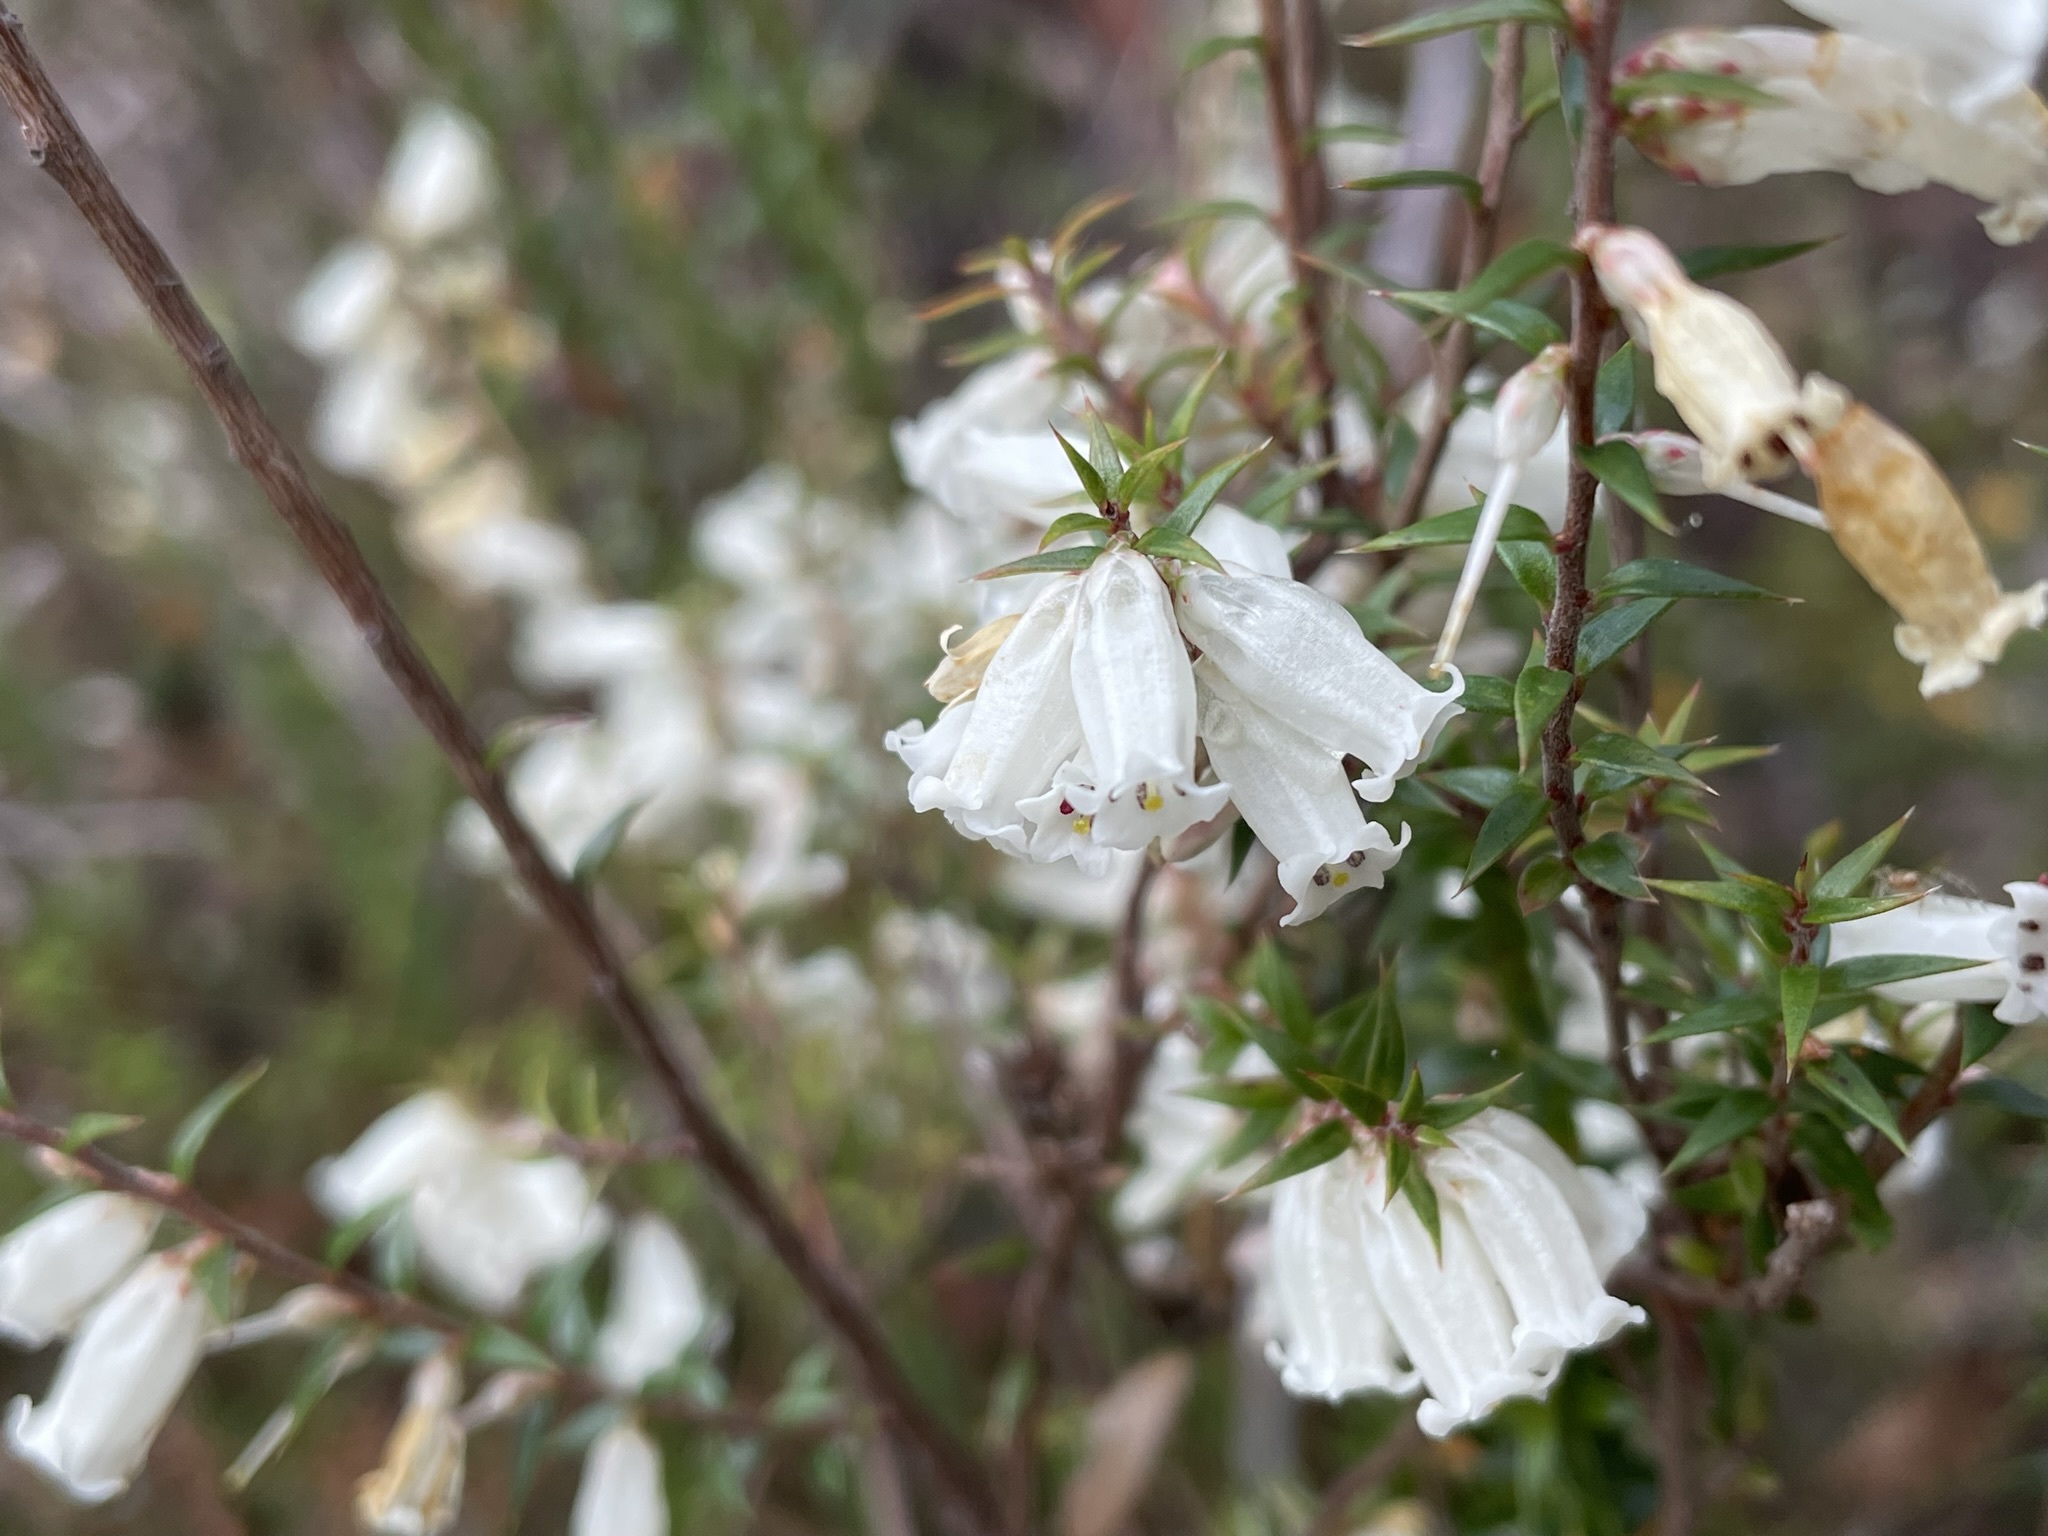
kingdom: Plantae
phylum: Tracheophyta
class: Magnoliopsida
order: Ericales
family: Ericaceae
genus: Epacris
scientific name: Epacris impressa
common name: Common-heath
